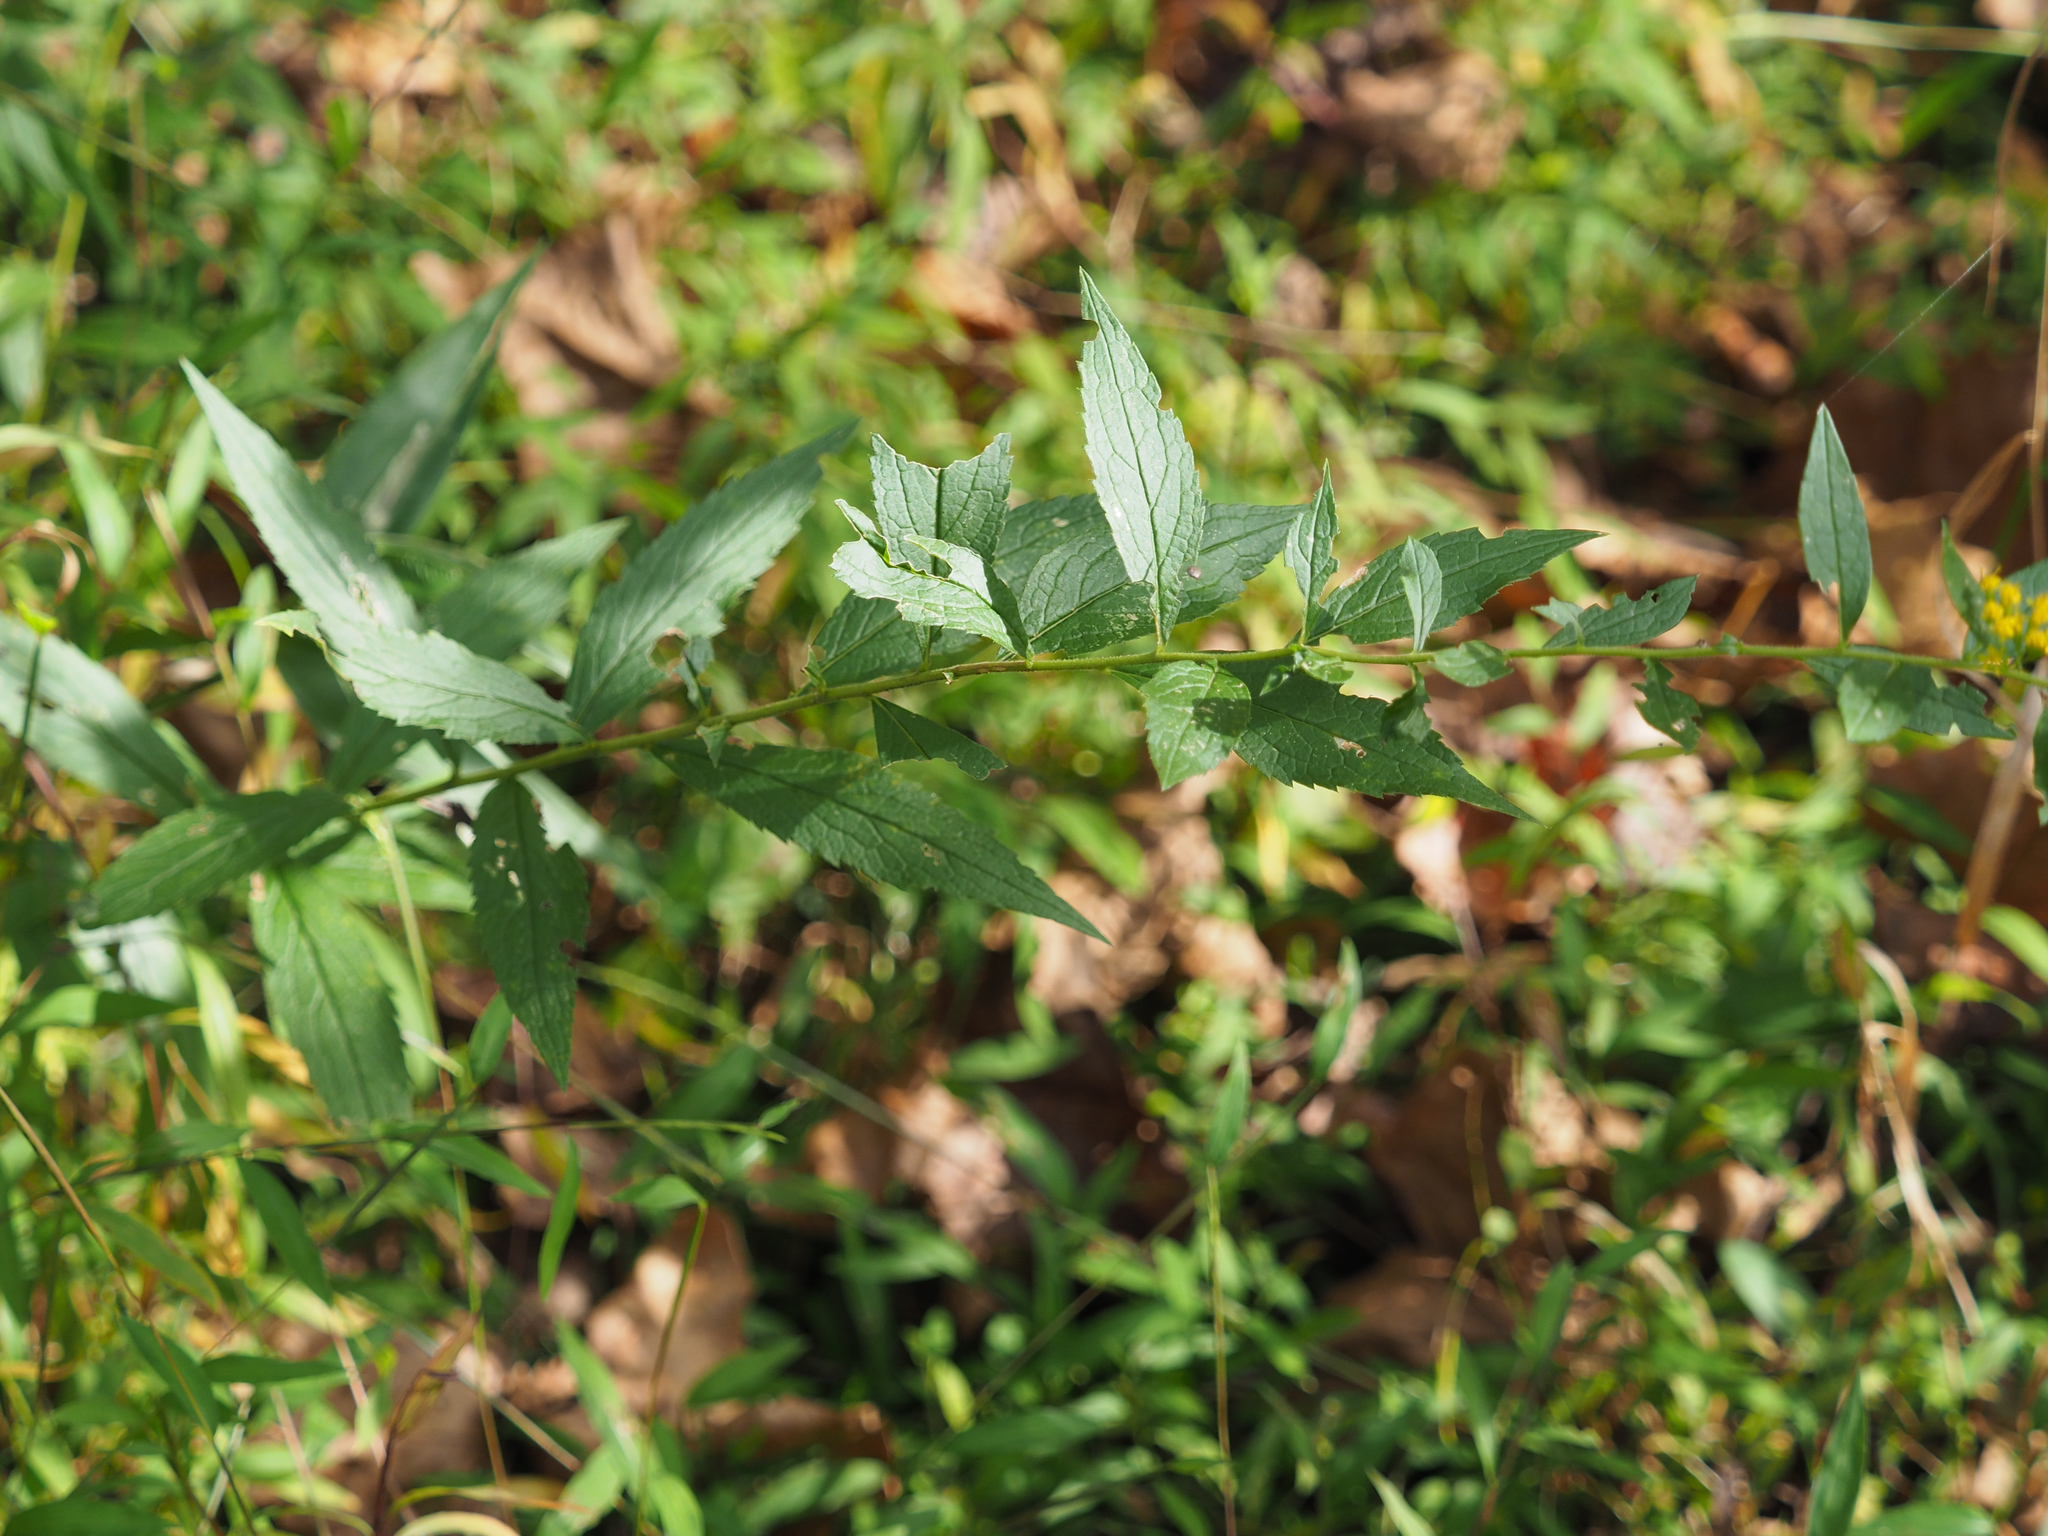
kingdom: Plantae
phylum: Tracheophyta
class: Magnoliopsida
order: Asterales
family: Asteraceae
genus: Solidago
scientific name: Solidago rugosa
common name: Rough-stemmed goldenrod
